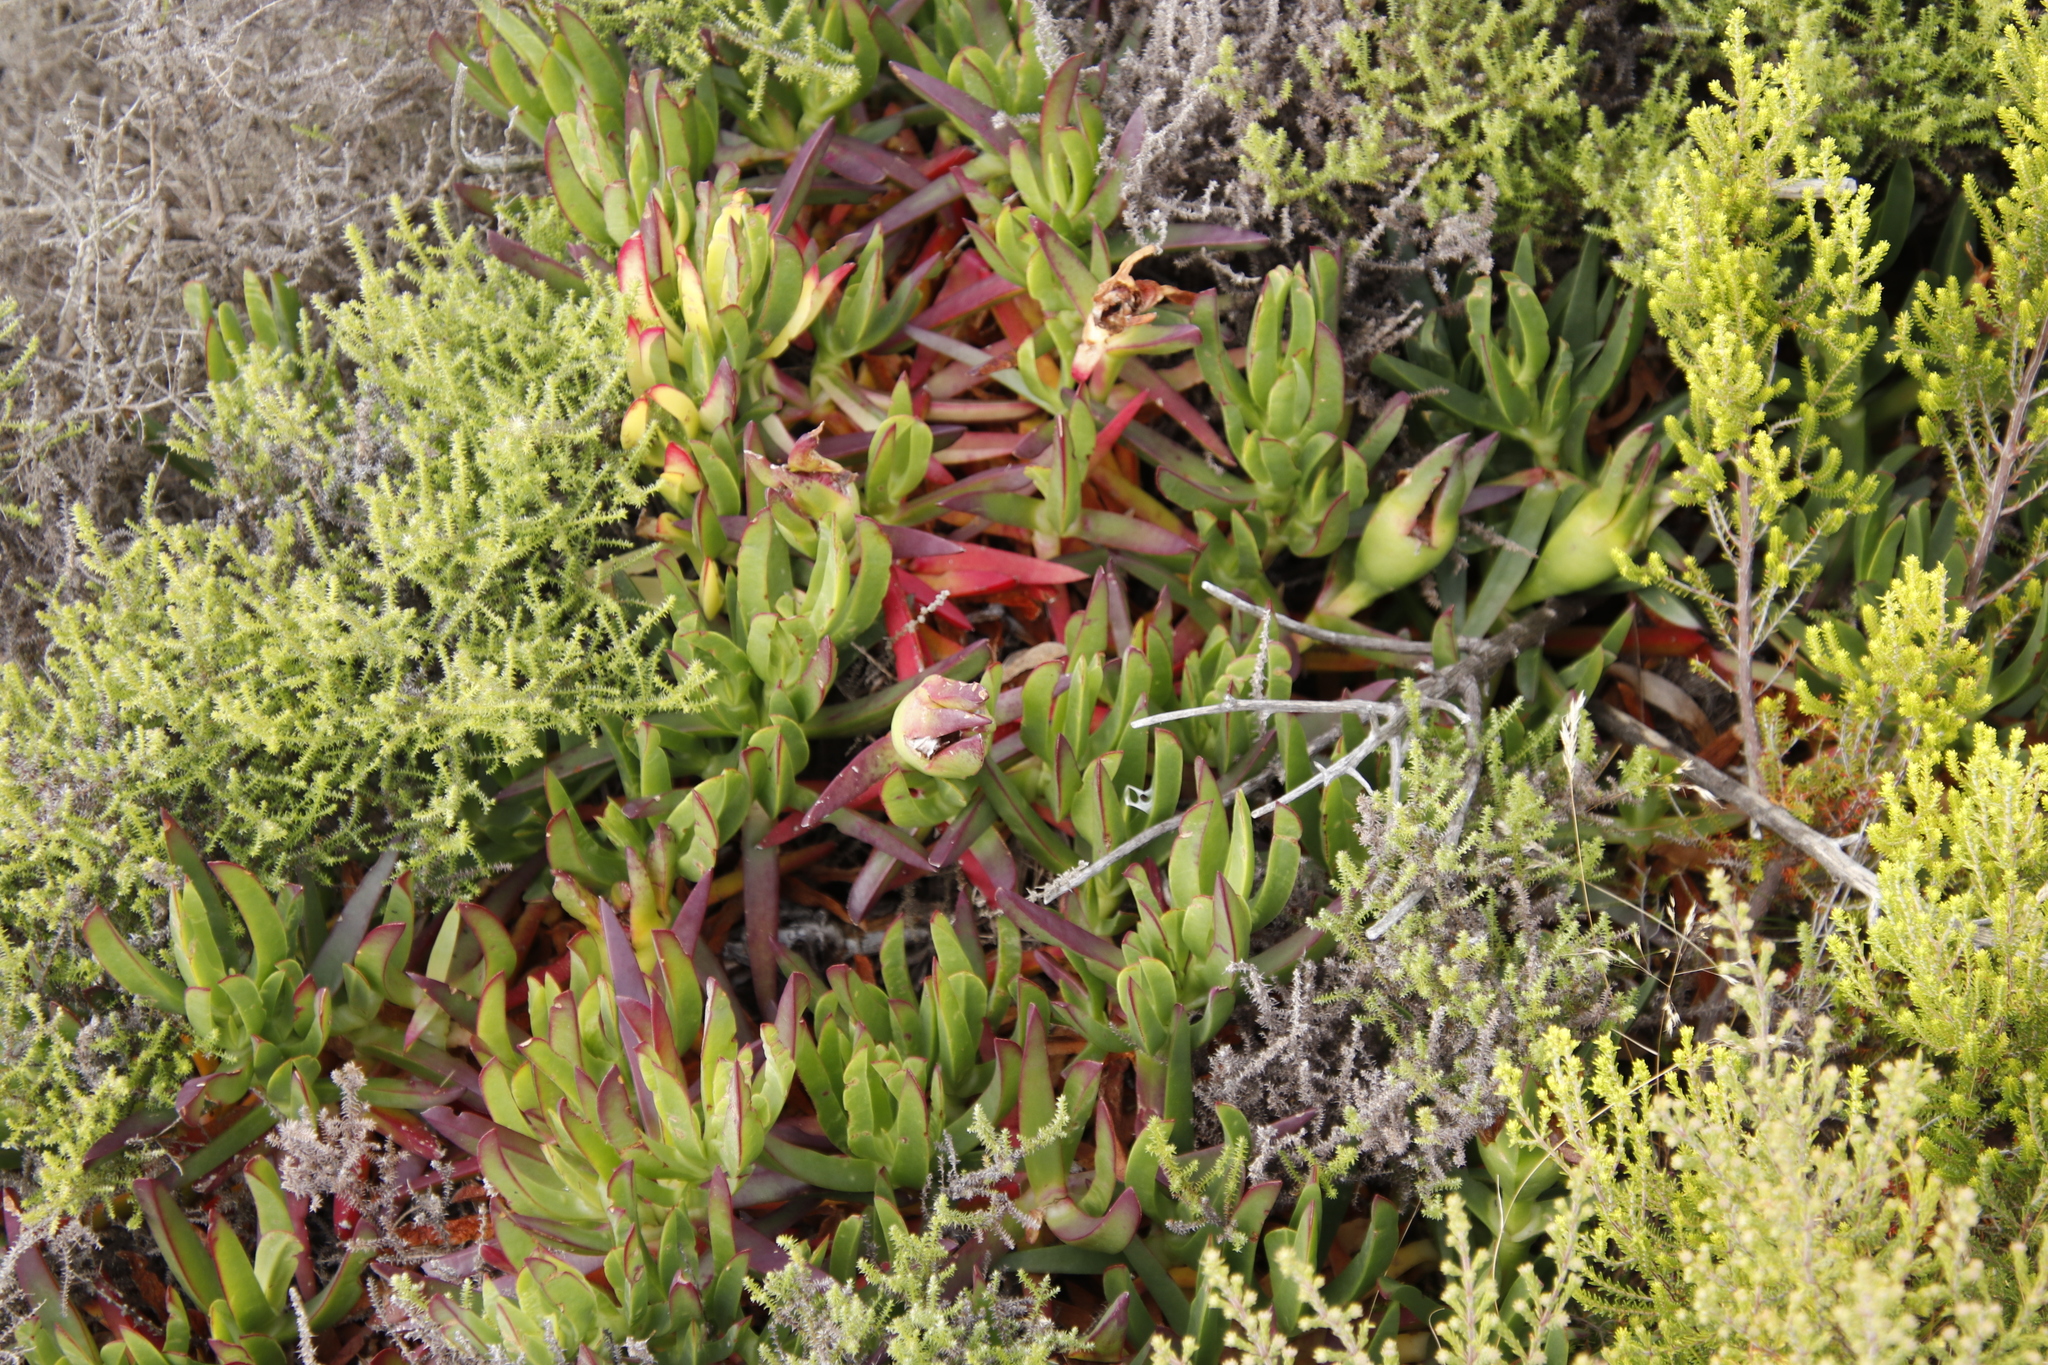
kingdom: Plantae
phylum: Tracheophyta
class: Magnoliopsida
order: Caryophyllales
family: Aizoaceae
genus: Carpobrotus
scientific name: Carpobrotus edulis
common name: Hottentot-fig
